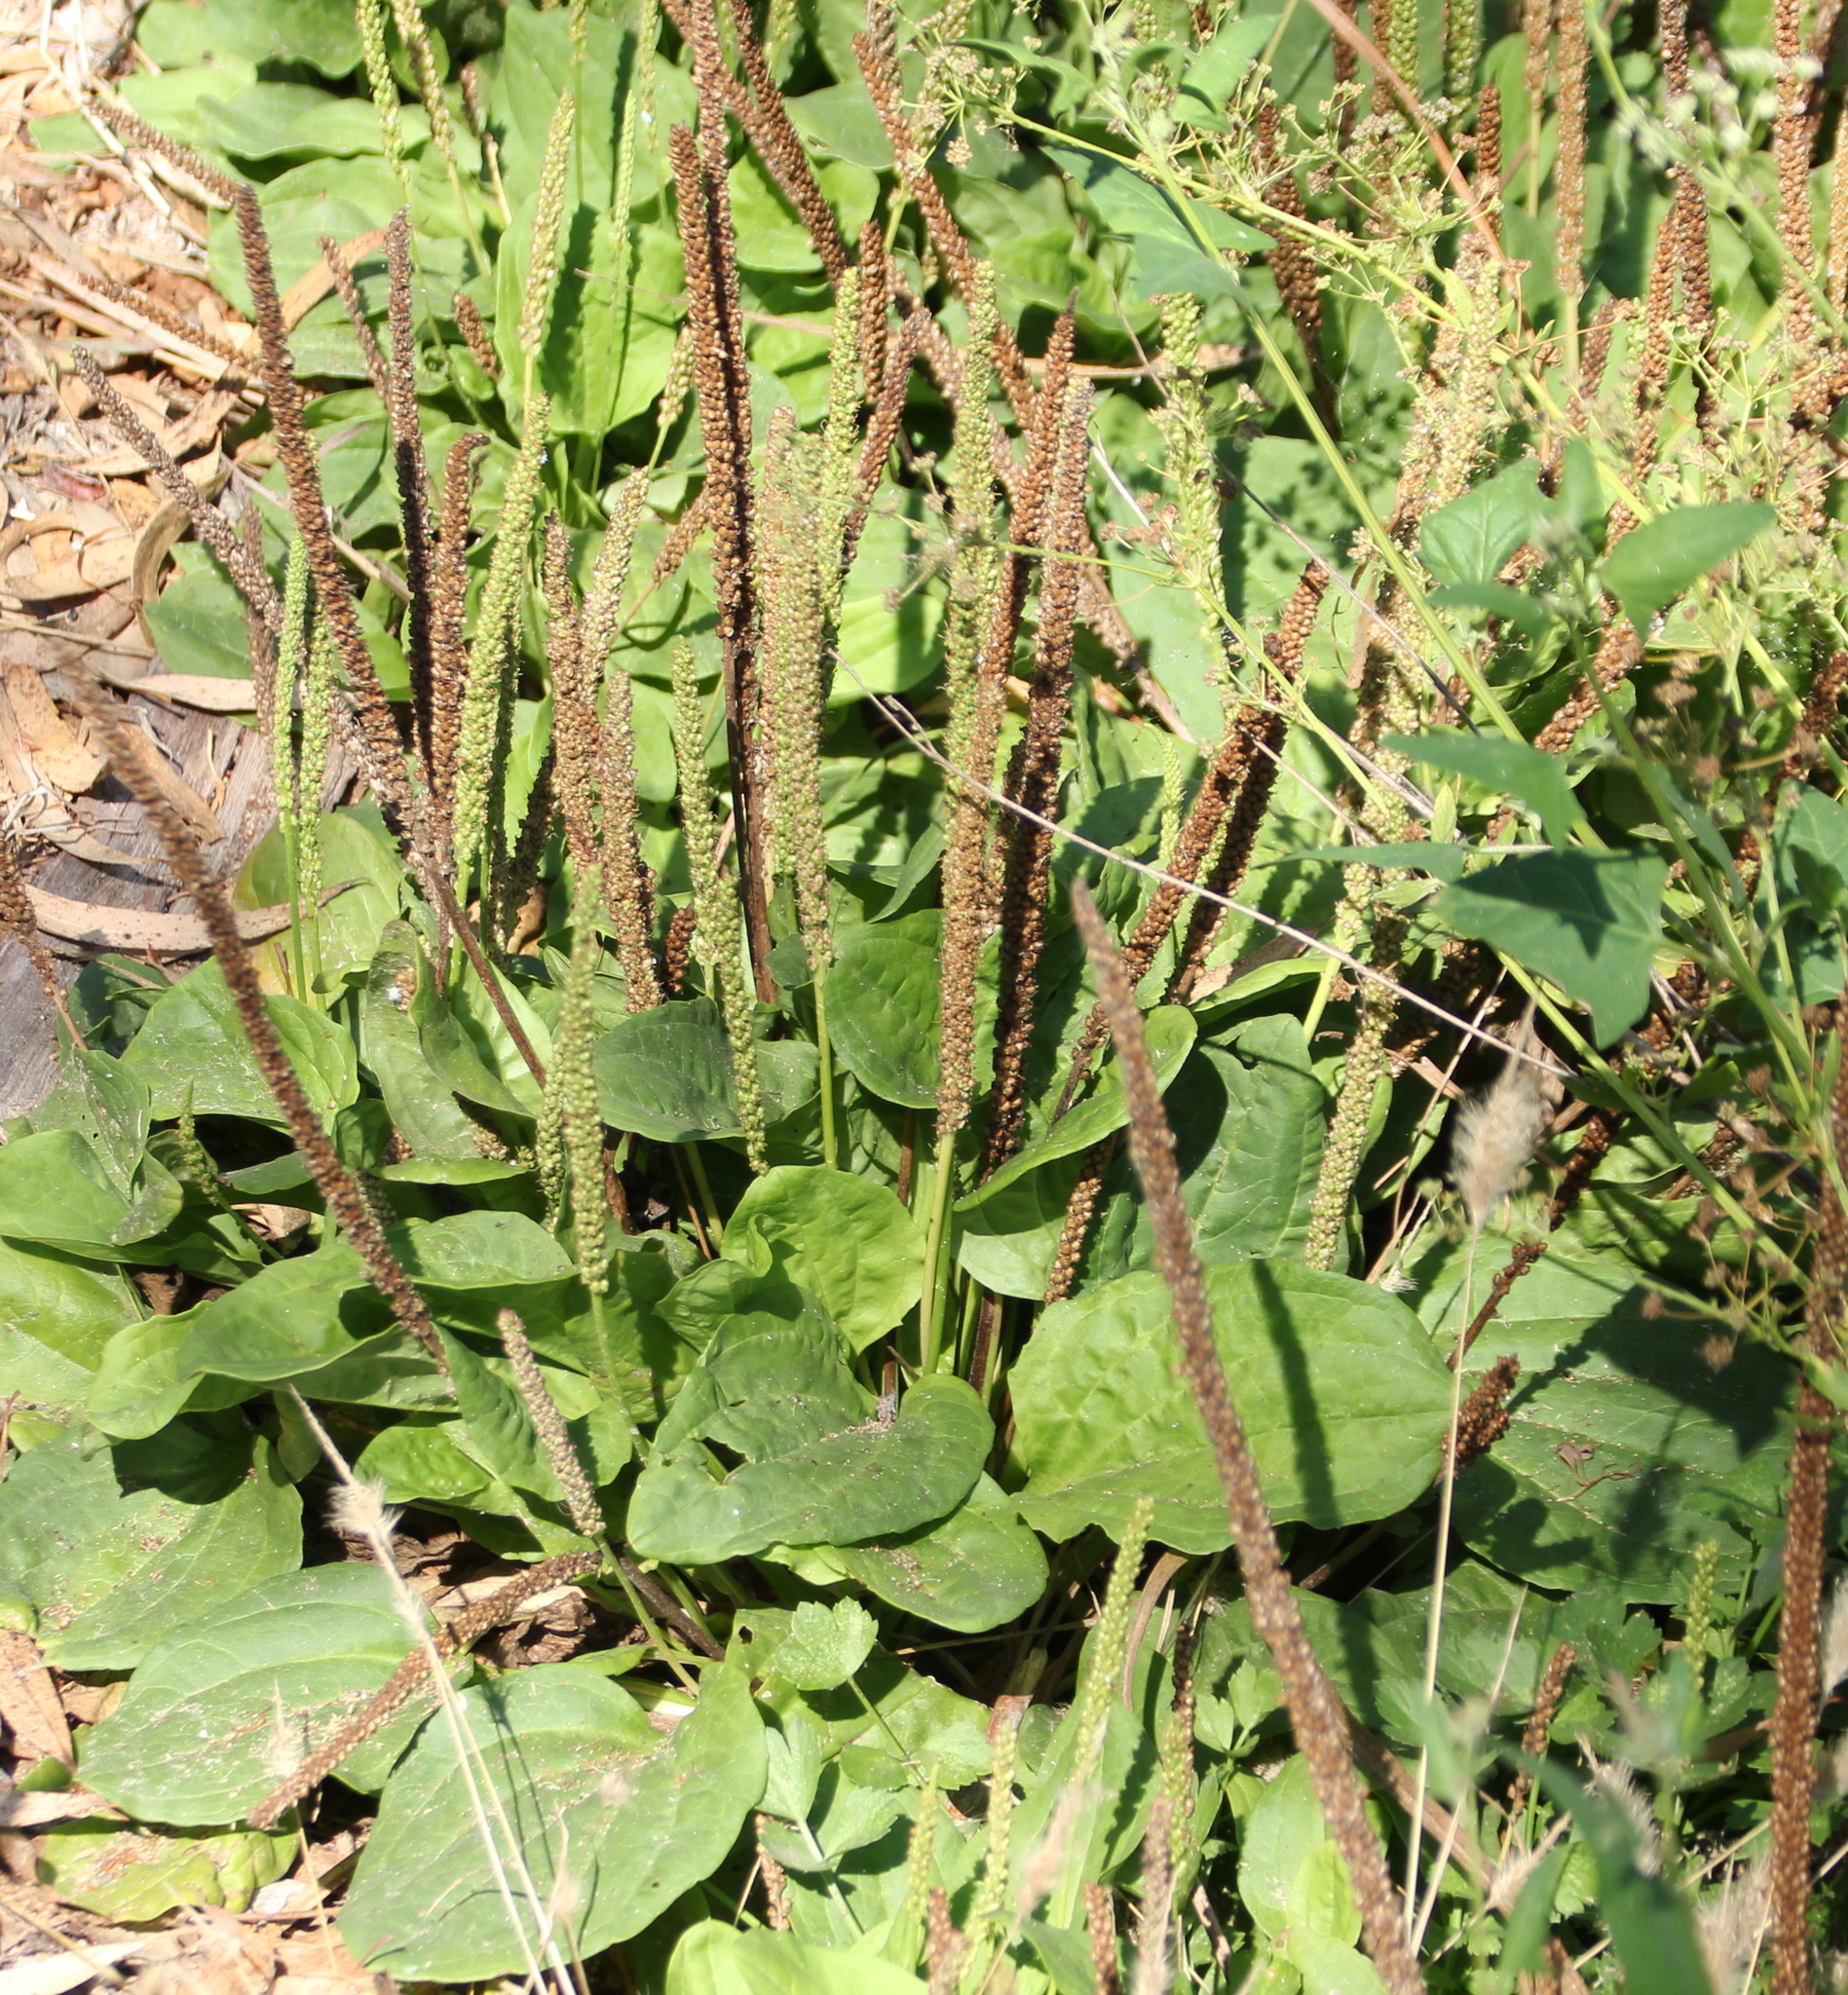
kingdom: Plantae
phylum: Tracheophyta
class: Magnoliopsida
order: Lamiales
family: Plantaginaceae
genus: Plantago
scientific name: Plantago major
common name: Common plantain
